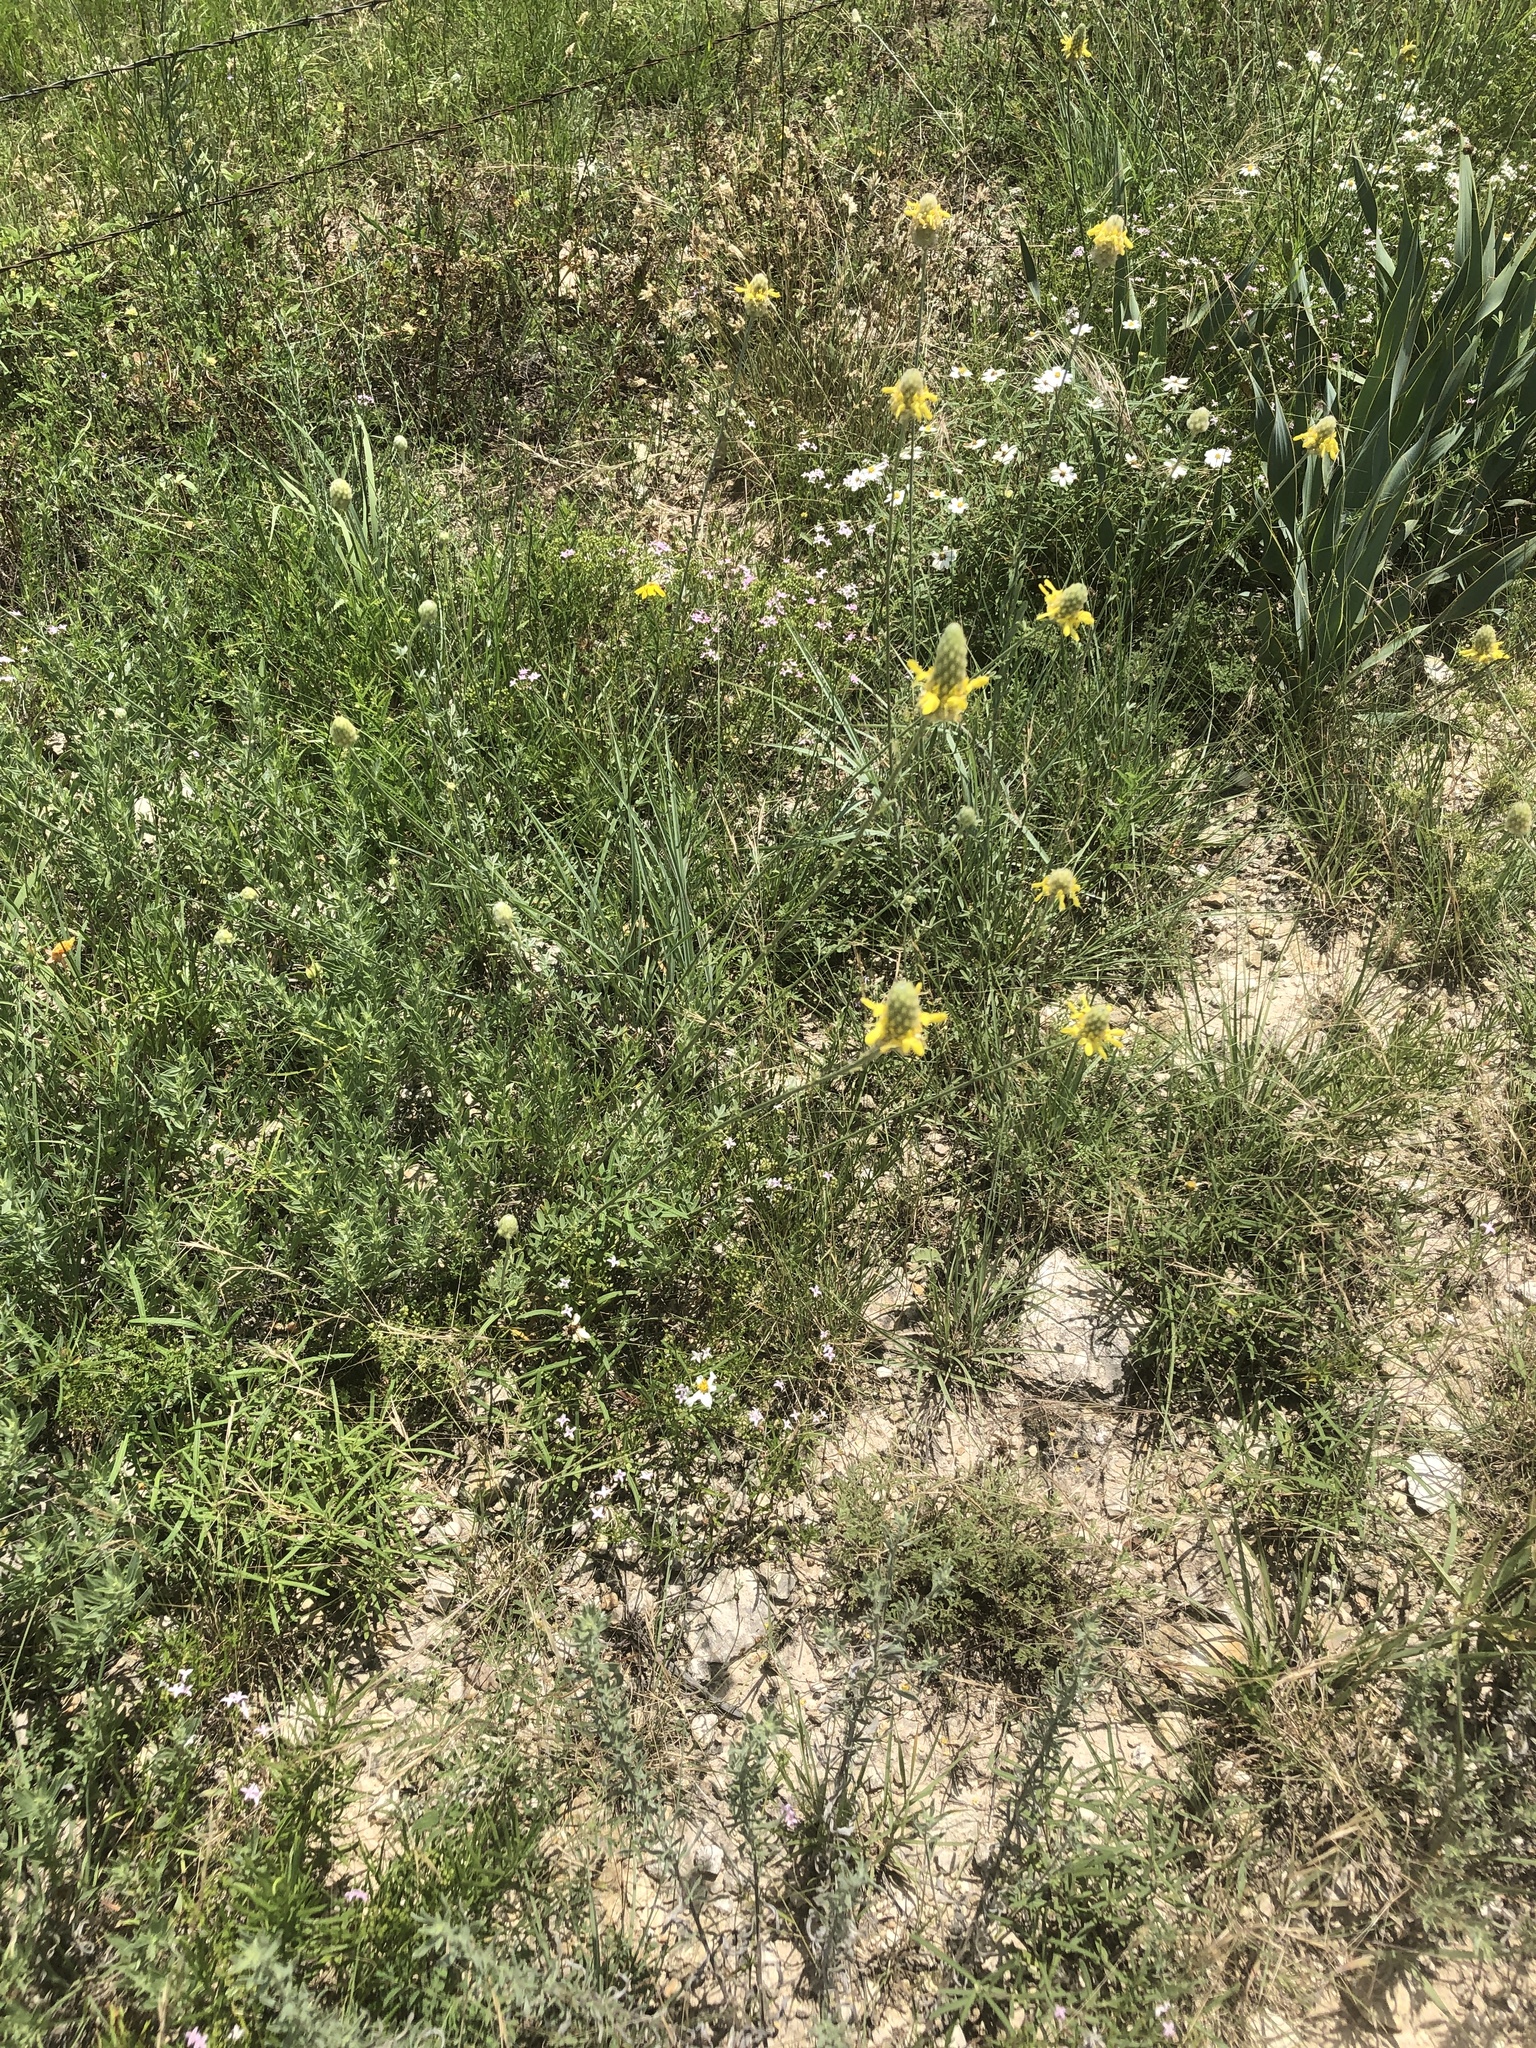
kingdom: Plantae
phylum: Tracheophyta
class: Magnoliopsida
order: Fabales
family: Fabaceae
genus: Dalea
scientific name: Dalea aurea
